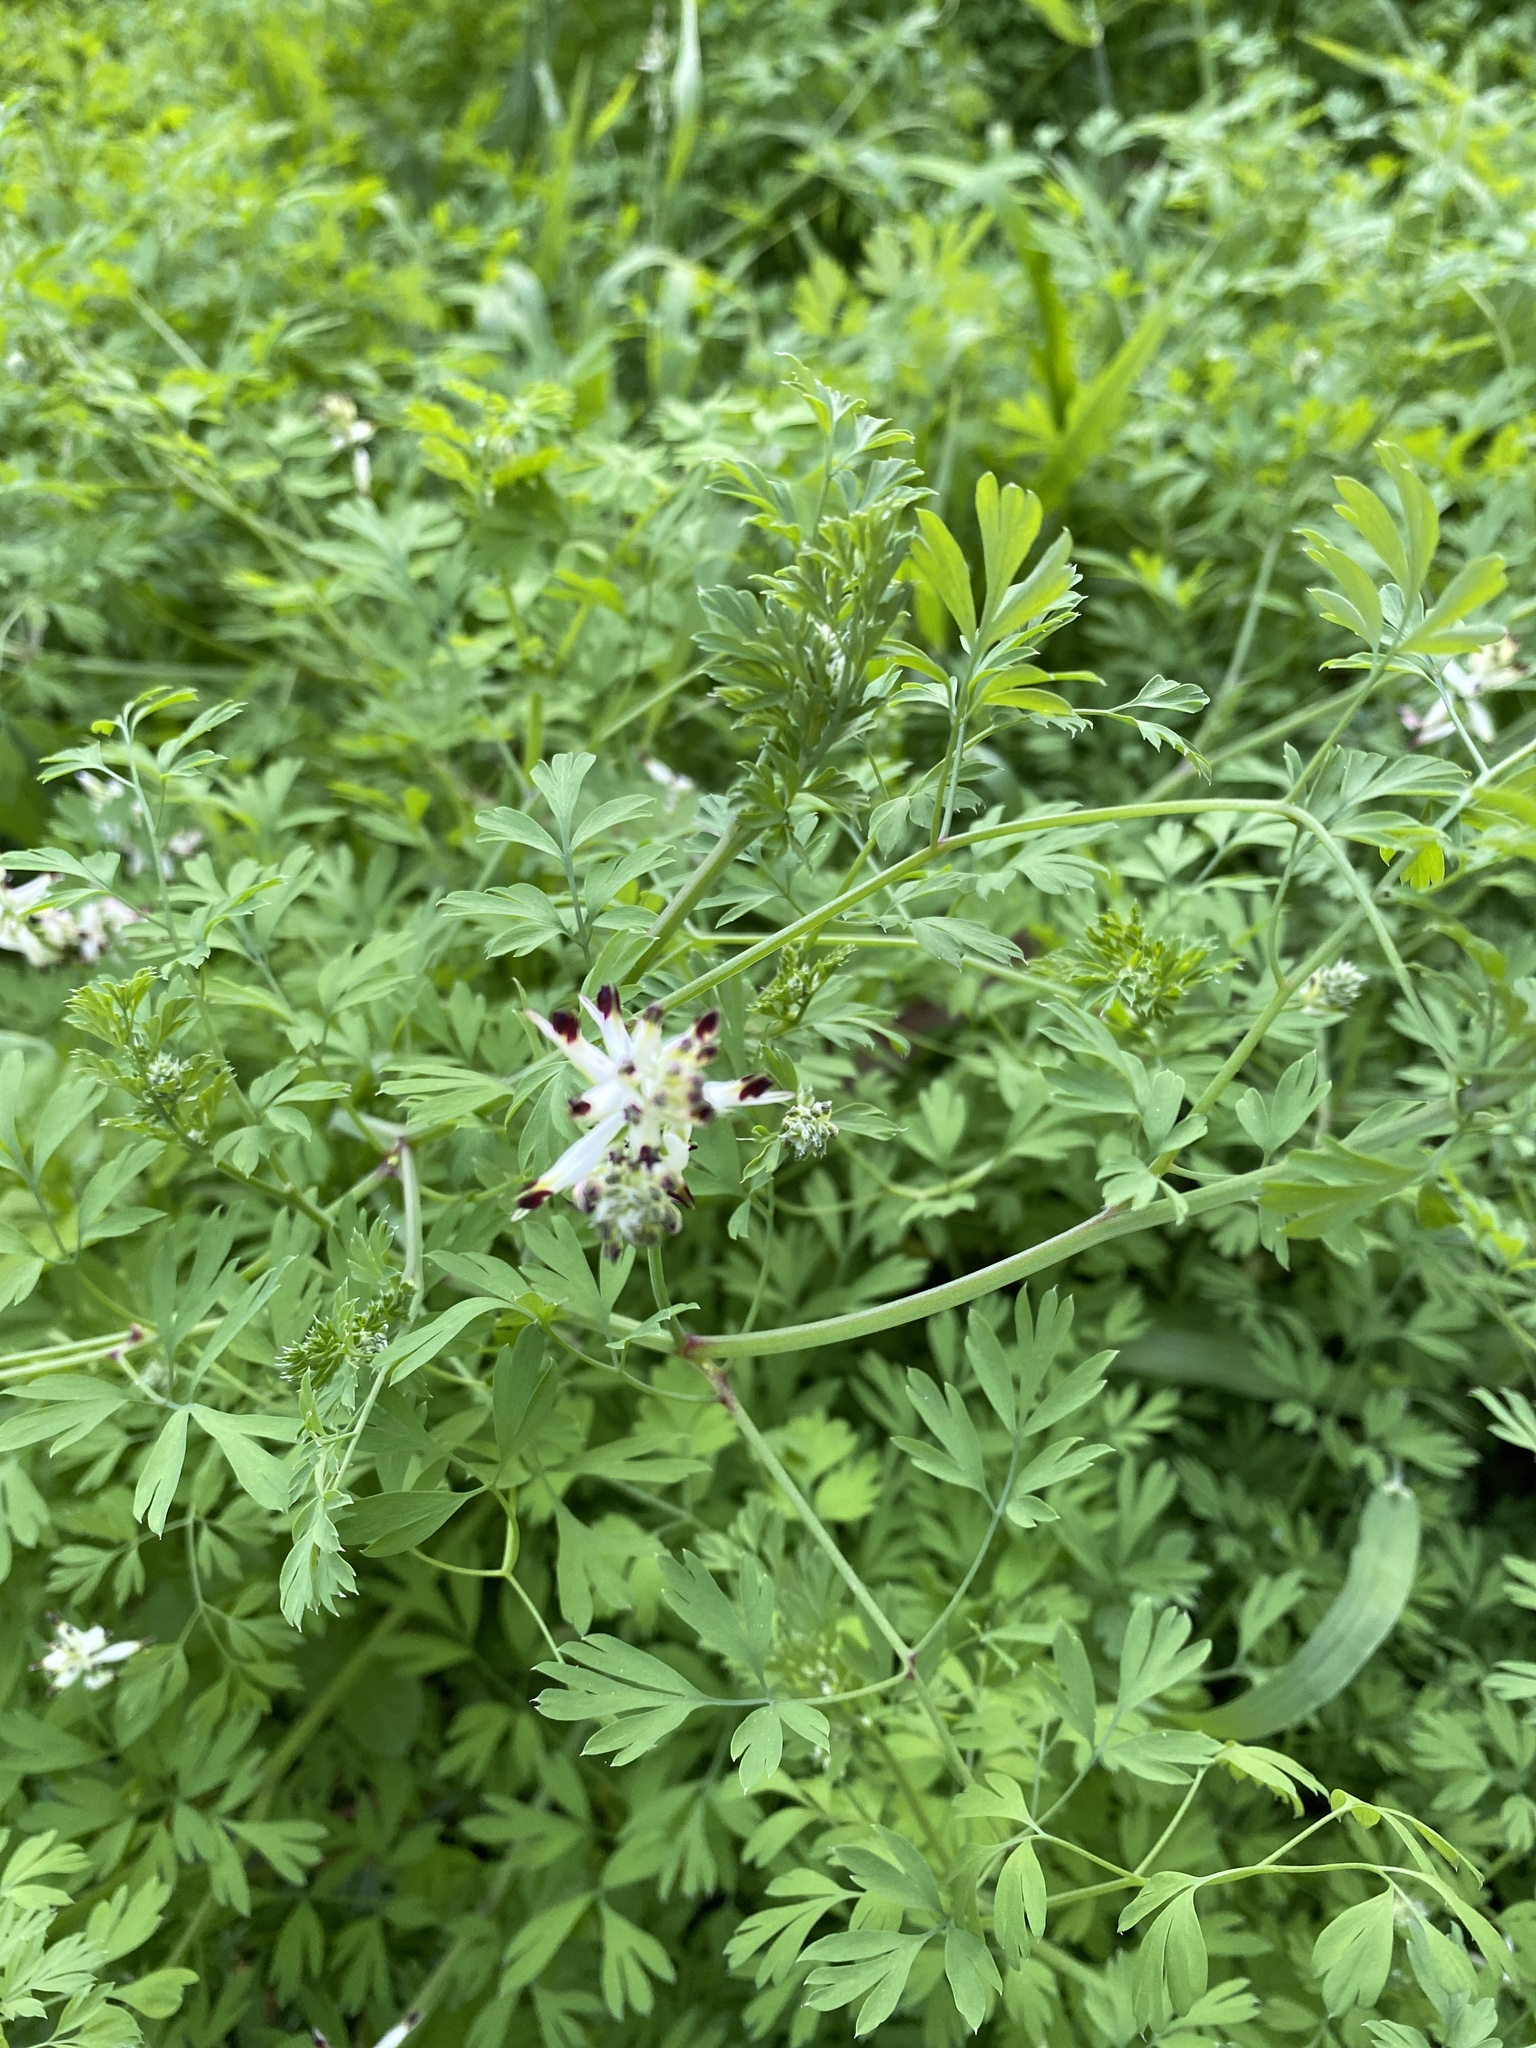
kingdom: Plantae
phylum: Tracheophyta
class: Magnoliopsida
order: Ranunculales
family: Papaveraceae
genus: Fumaria
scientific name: Fumaria capreolata
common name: White ramping-fumitory
